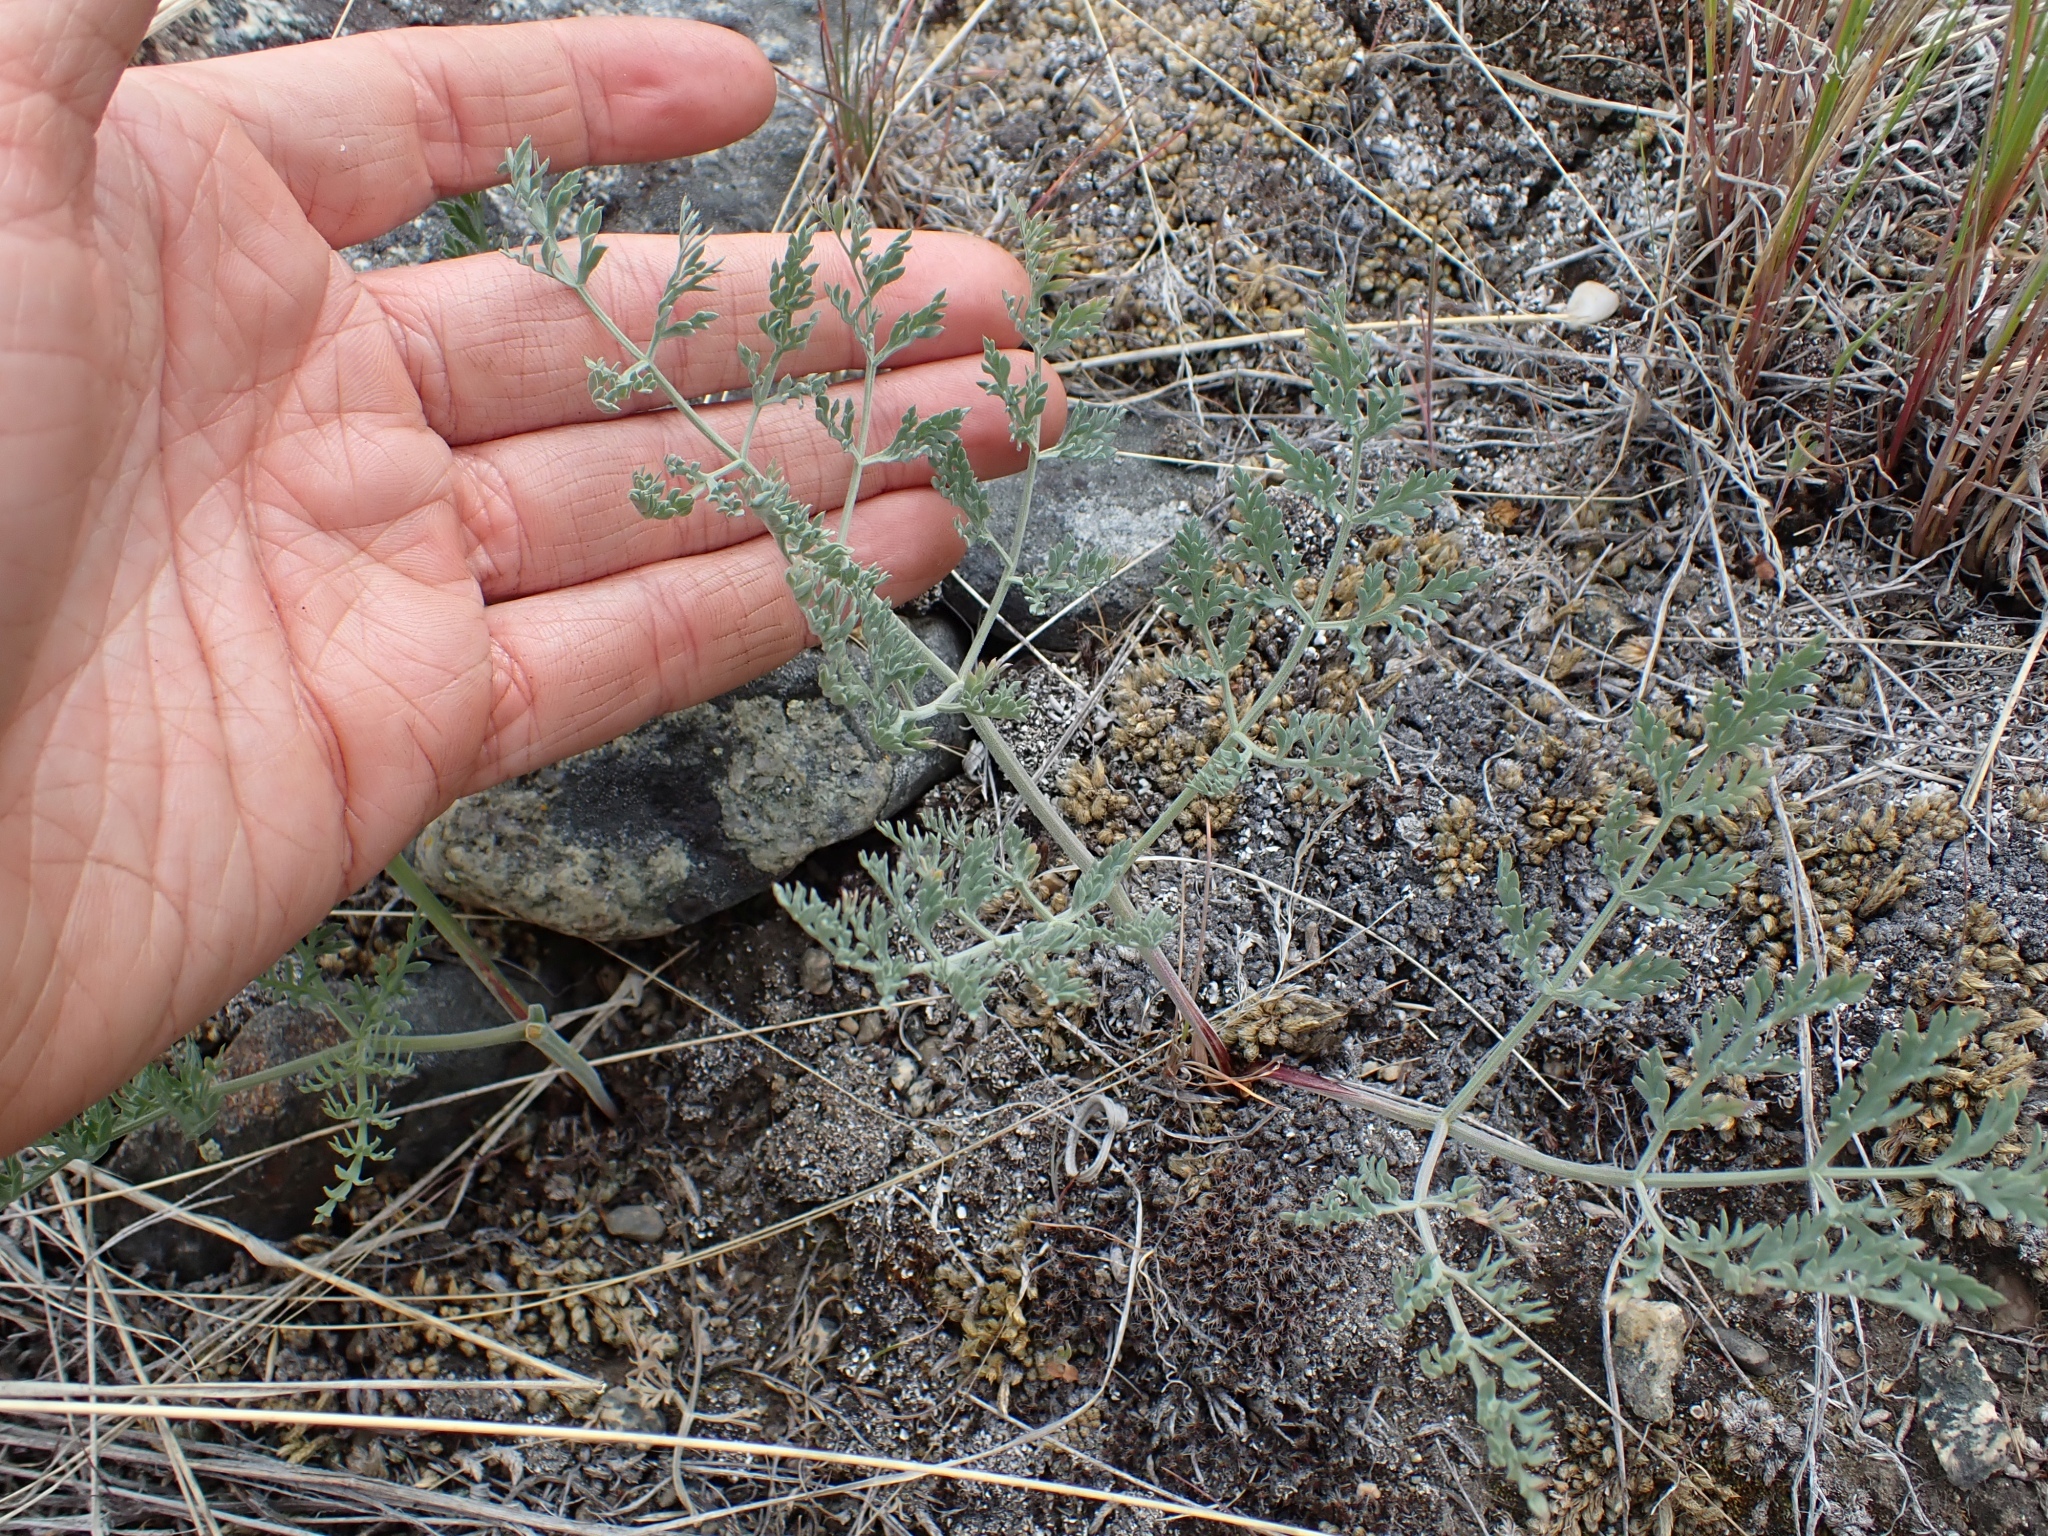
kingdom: Plantae
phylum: Tracheophyta
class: Magnoliopsida
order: Apiales
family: Apiaceae
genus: Lomatium
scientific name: Lomatium macrocarpum
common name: Big-seed biscuitroot
